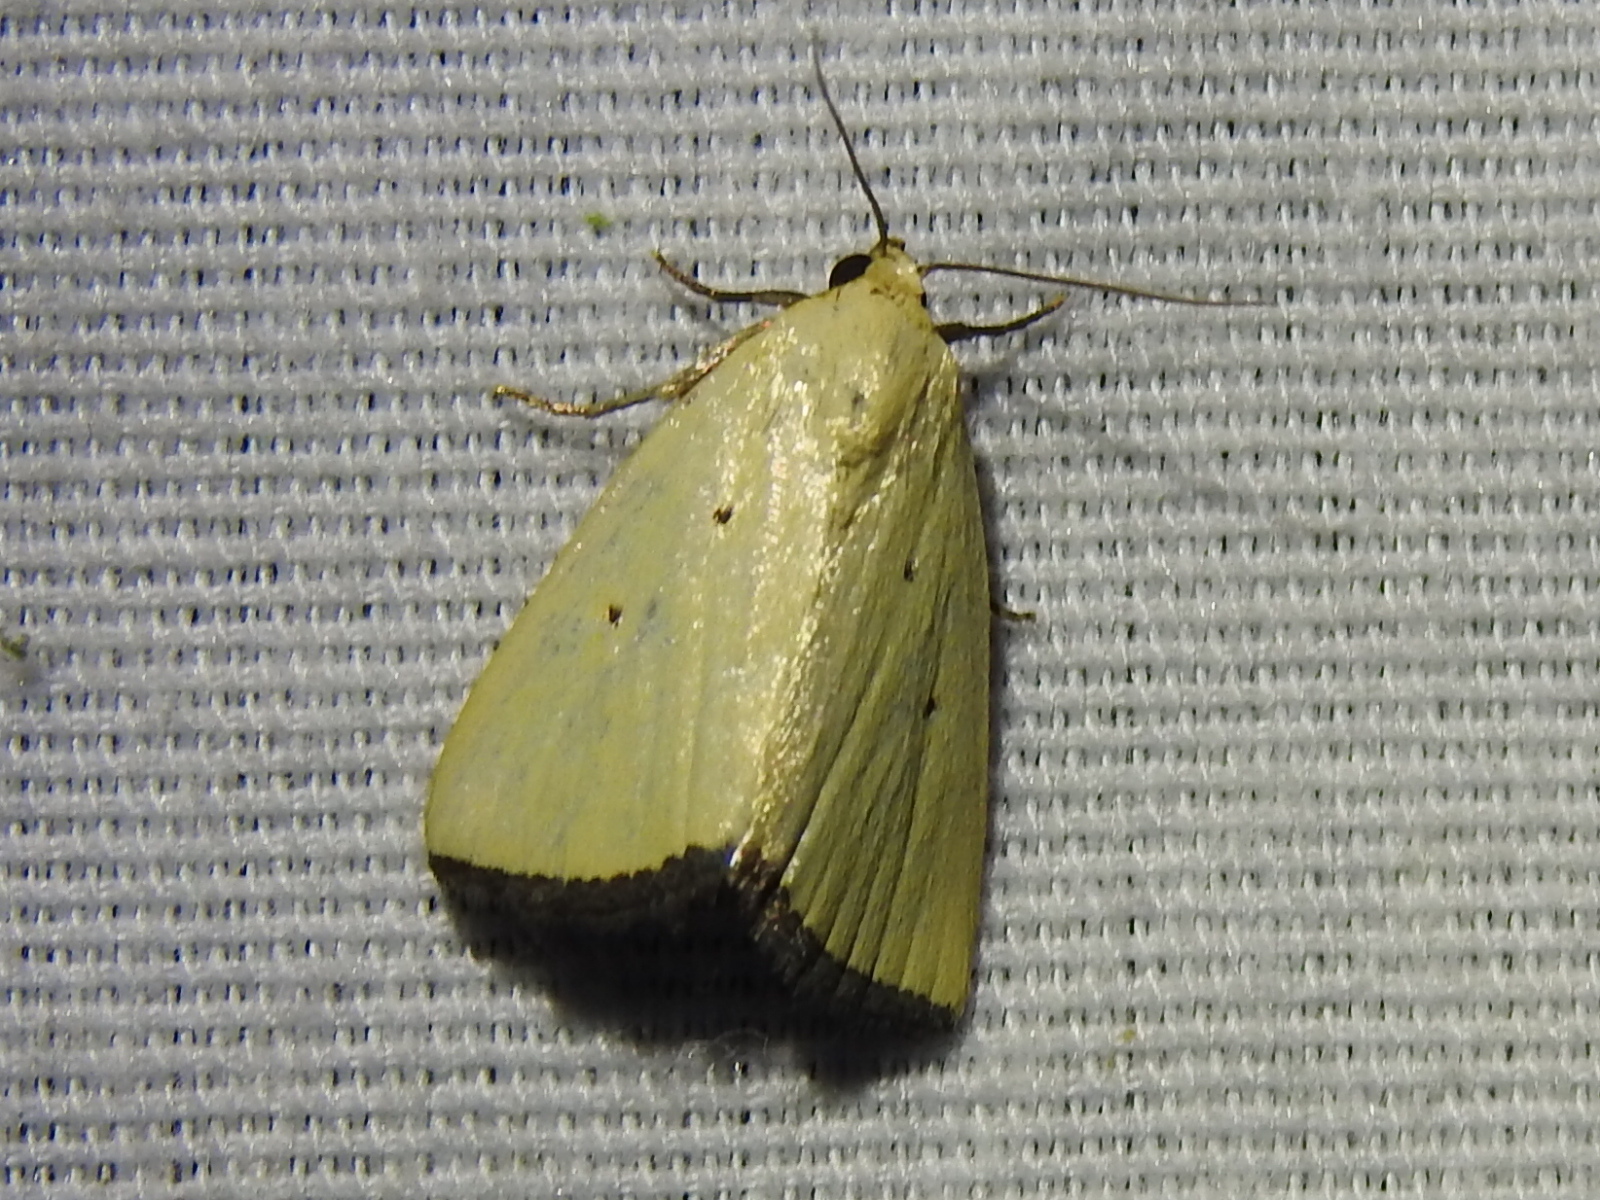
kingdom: Animalia
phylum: Arthropoda
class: Insecta
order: Lepidoptera
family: Noctuidae
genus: Marimatha
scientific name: Marimatha nigrofimbria
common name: Black-bordered lemon moth
